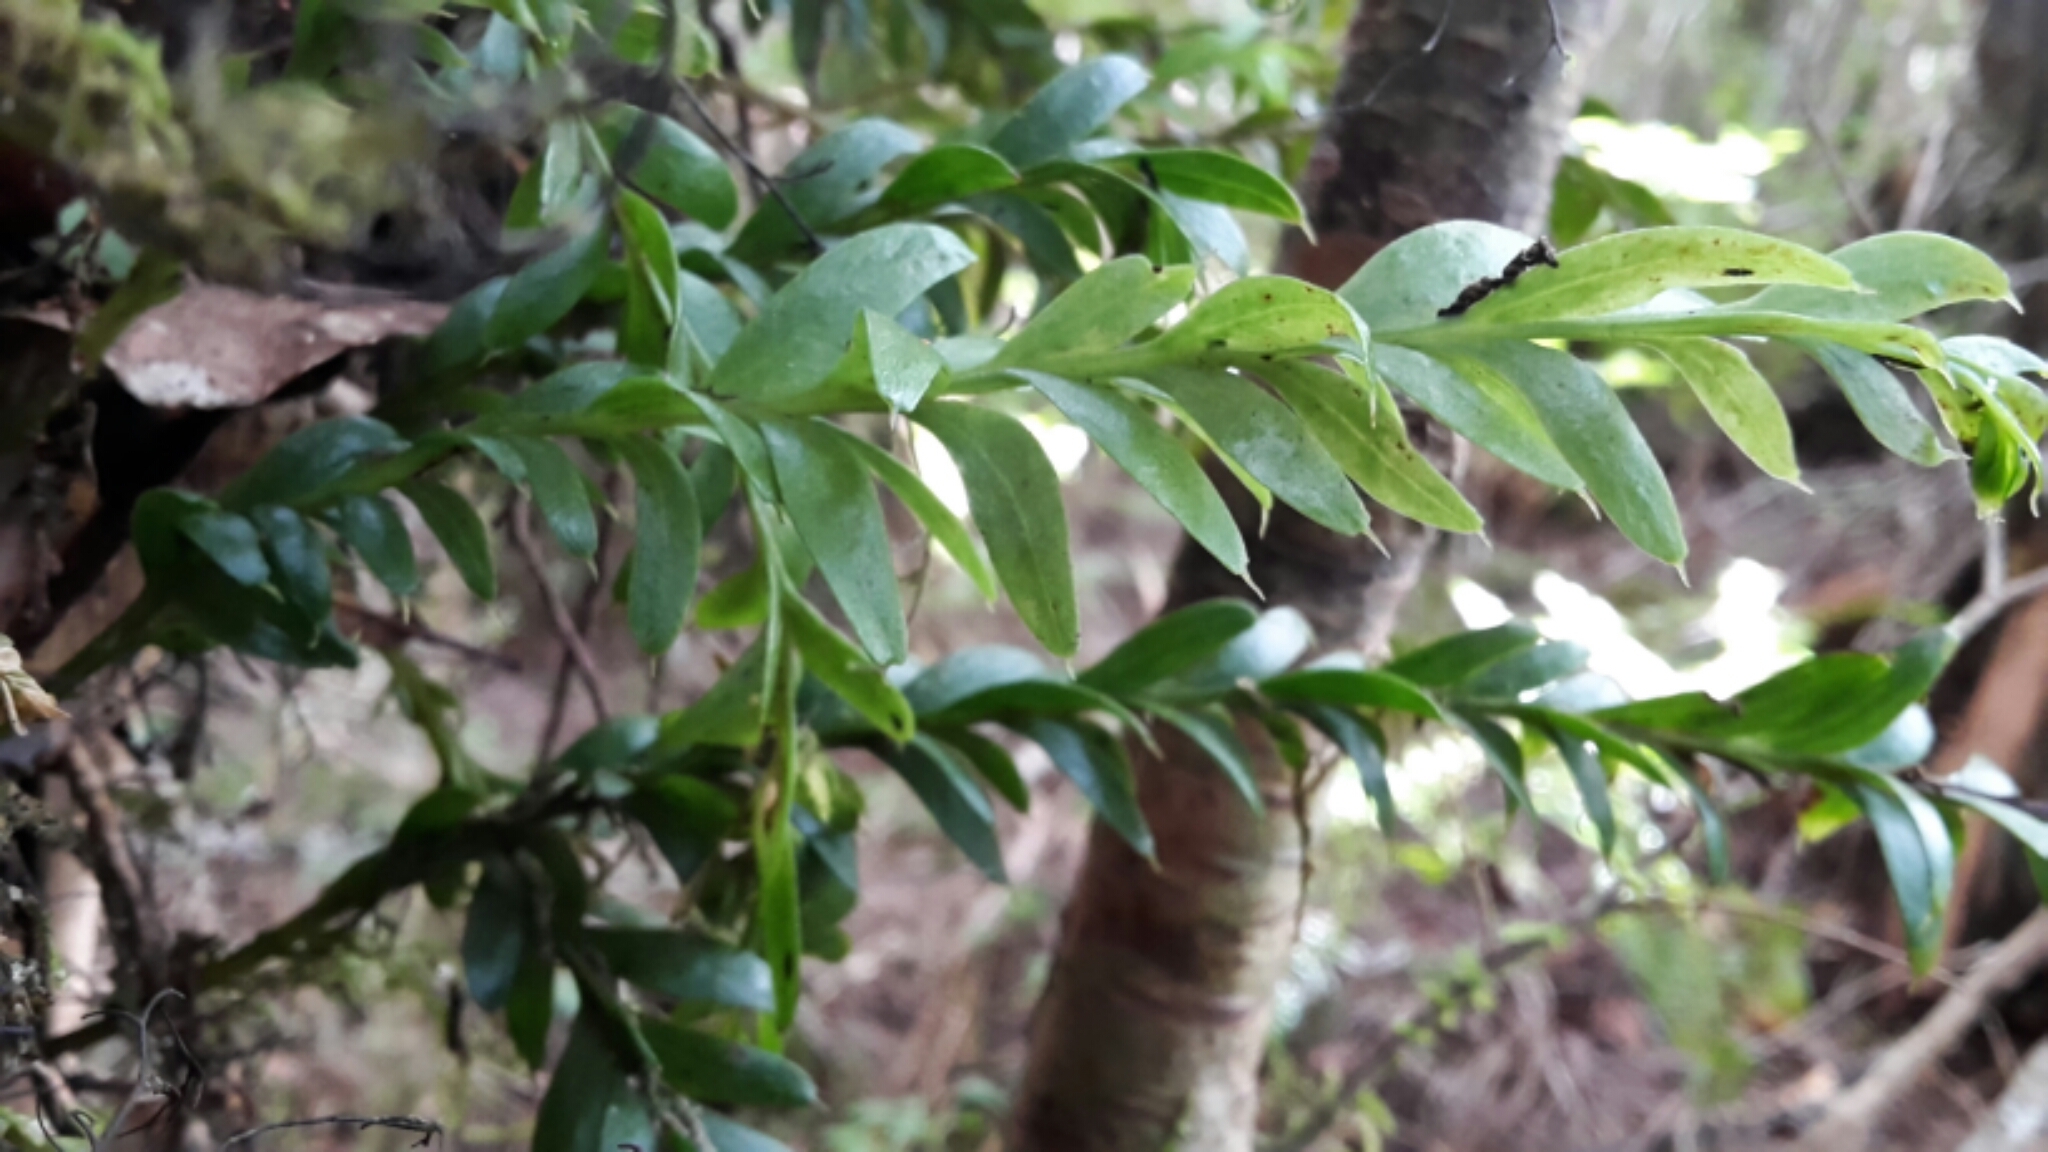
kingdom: Plantae
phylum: Tracheophyta
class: Polypodiopsida
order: Psilotales
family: Psilotaceae
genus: Tmesipteris
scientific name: Tmesipteris tannensis
